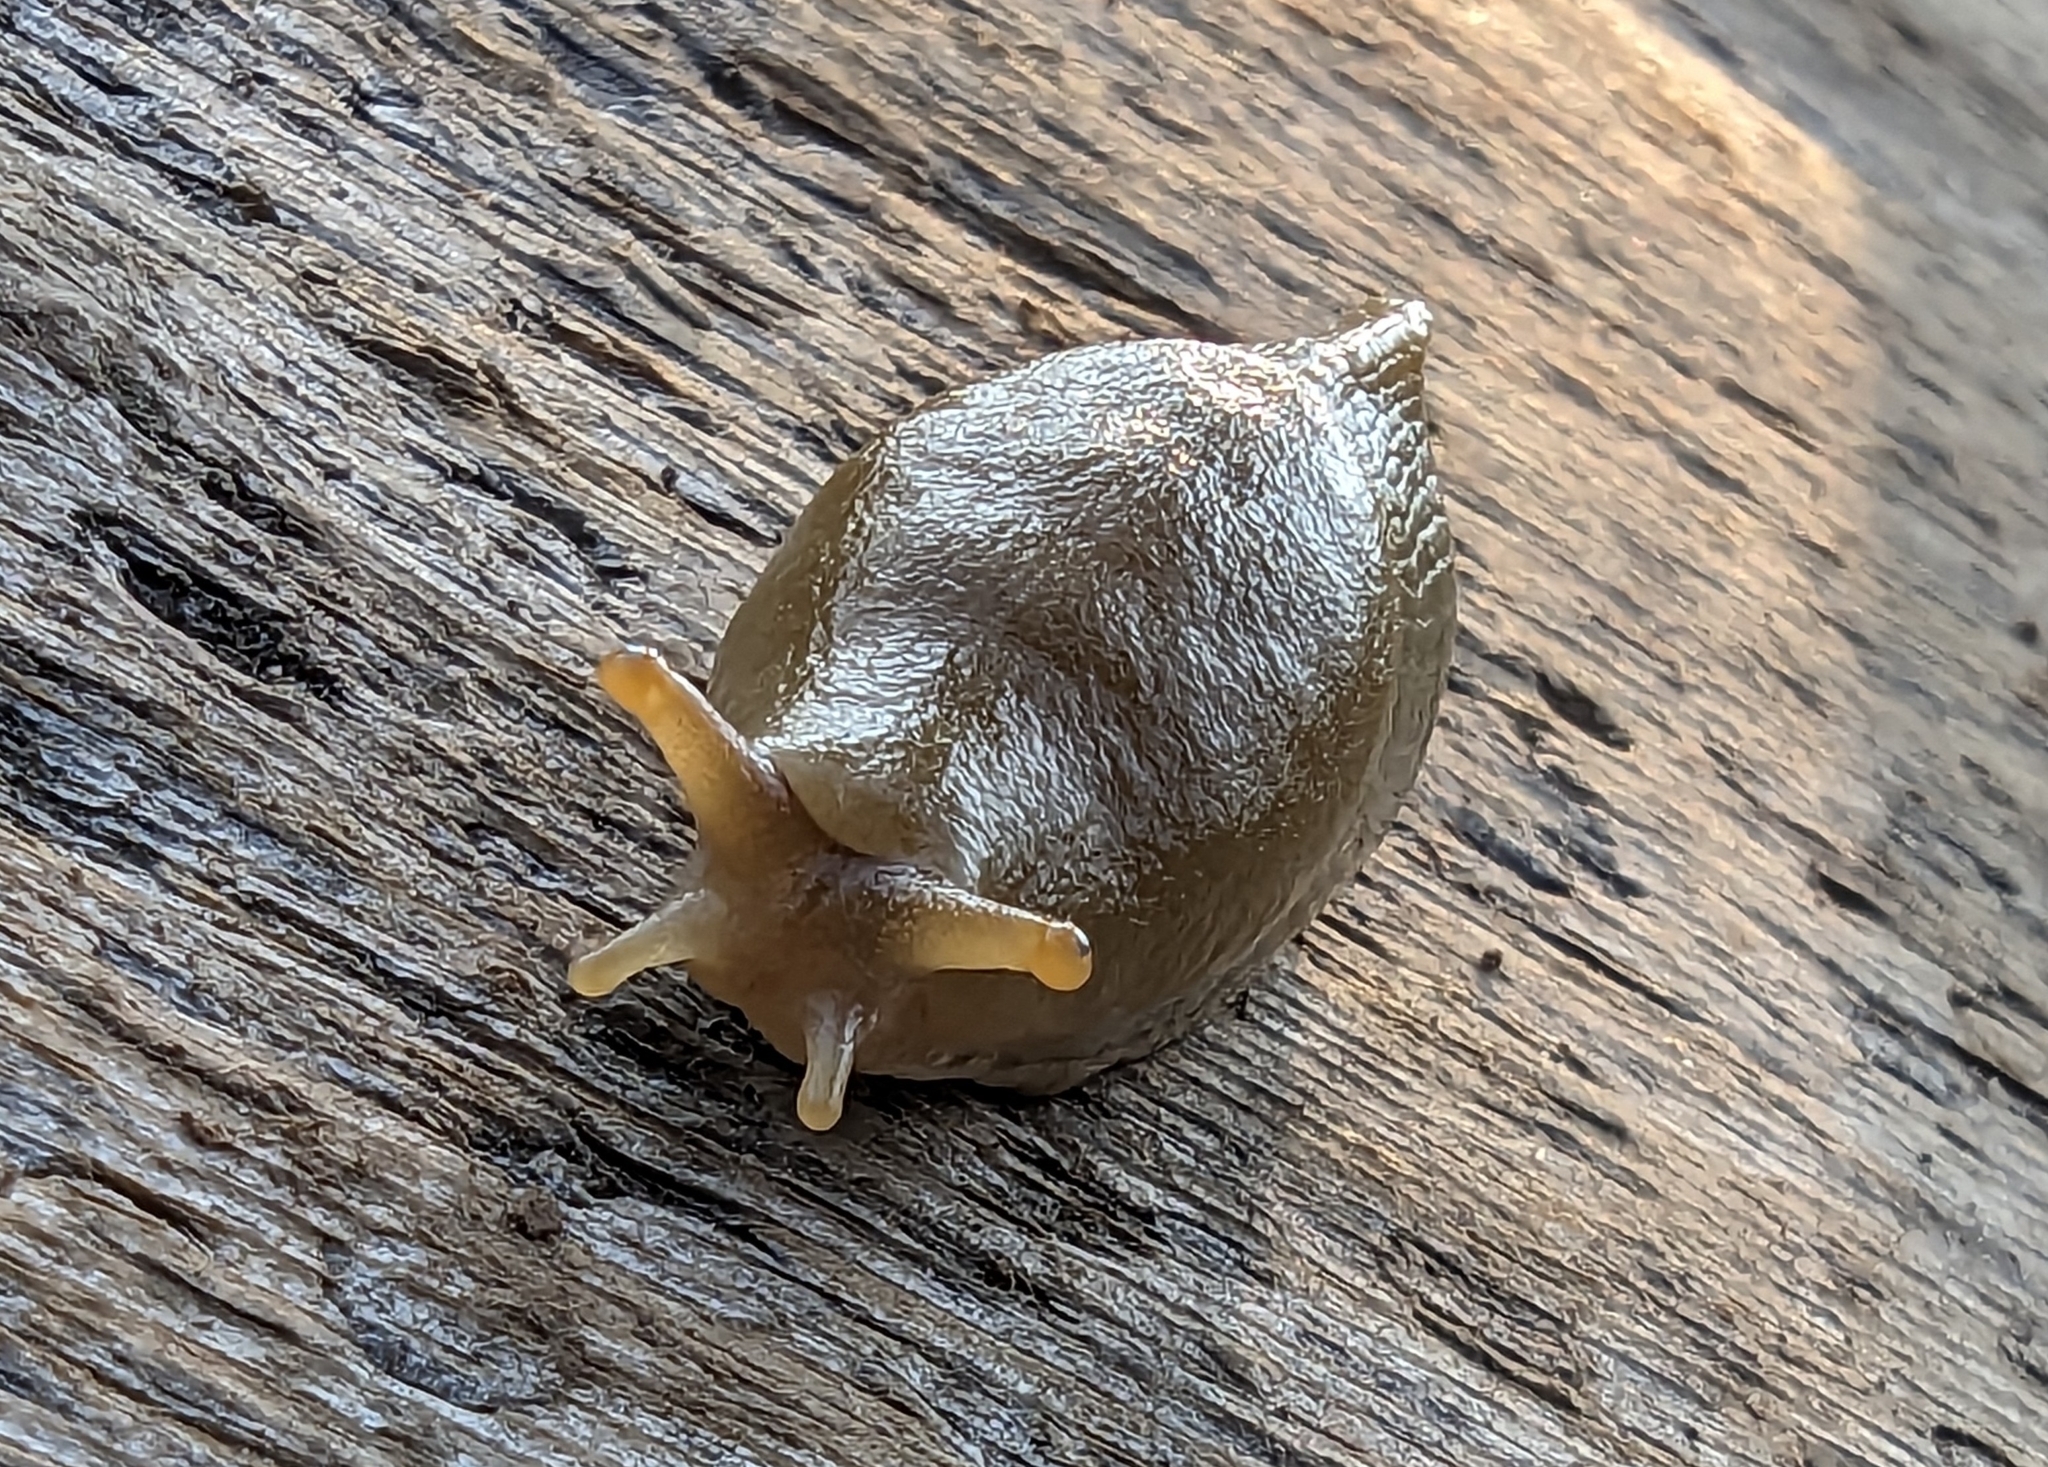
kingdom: Animalia
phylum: Mollusca
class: Gastropoda
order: Stylommatophora
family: Ariolimacidae
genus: Ariolimax
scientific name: Ariolimax columbianus
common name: Pacific banana slug
